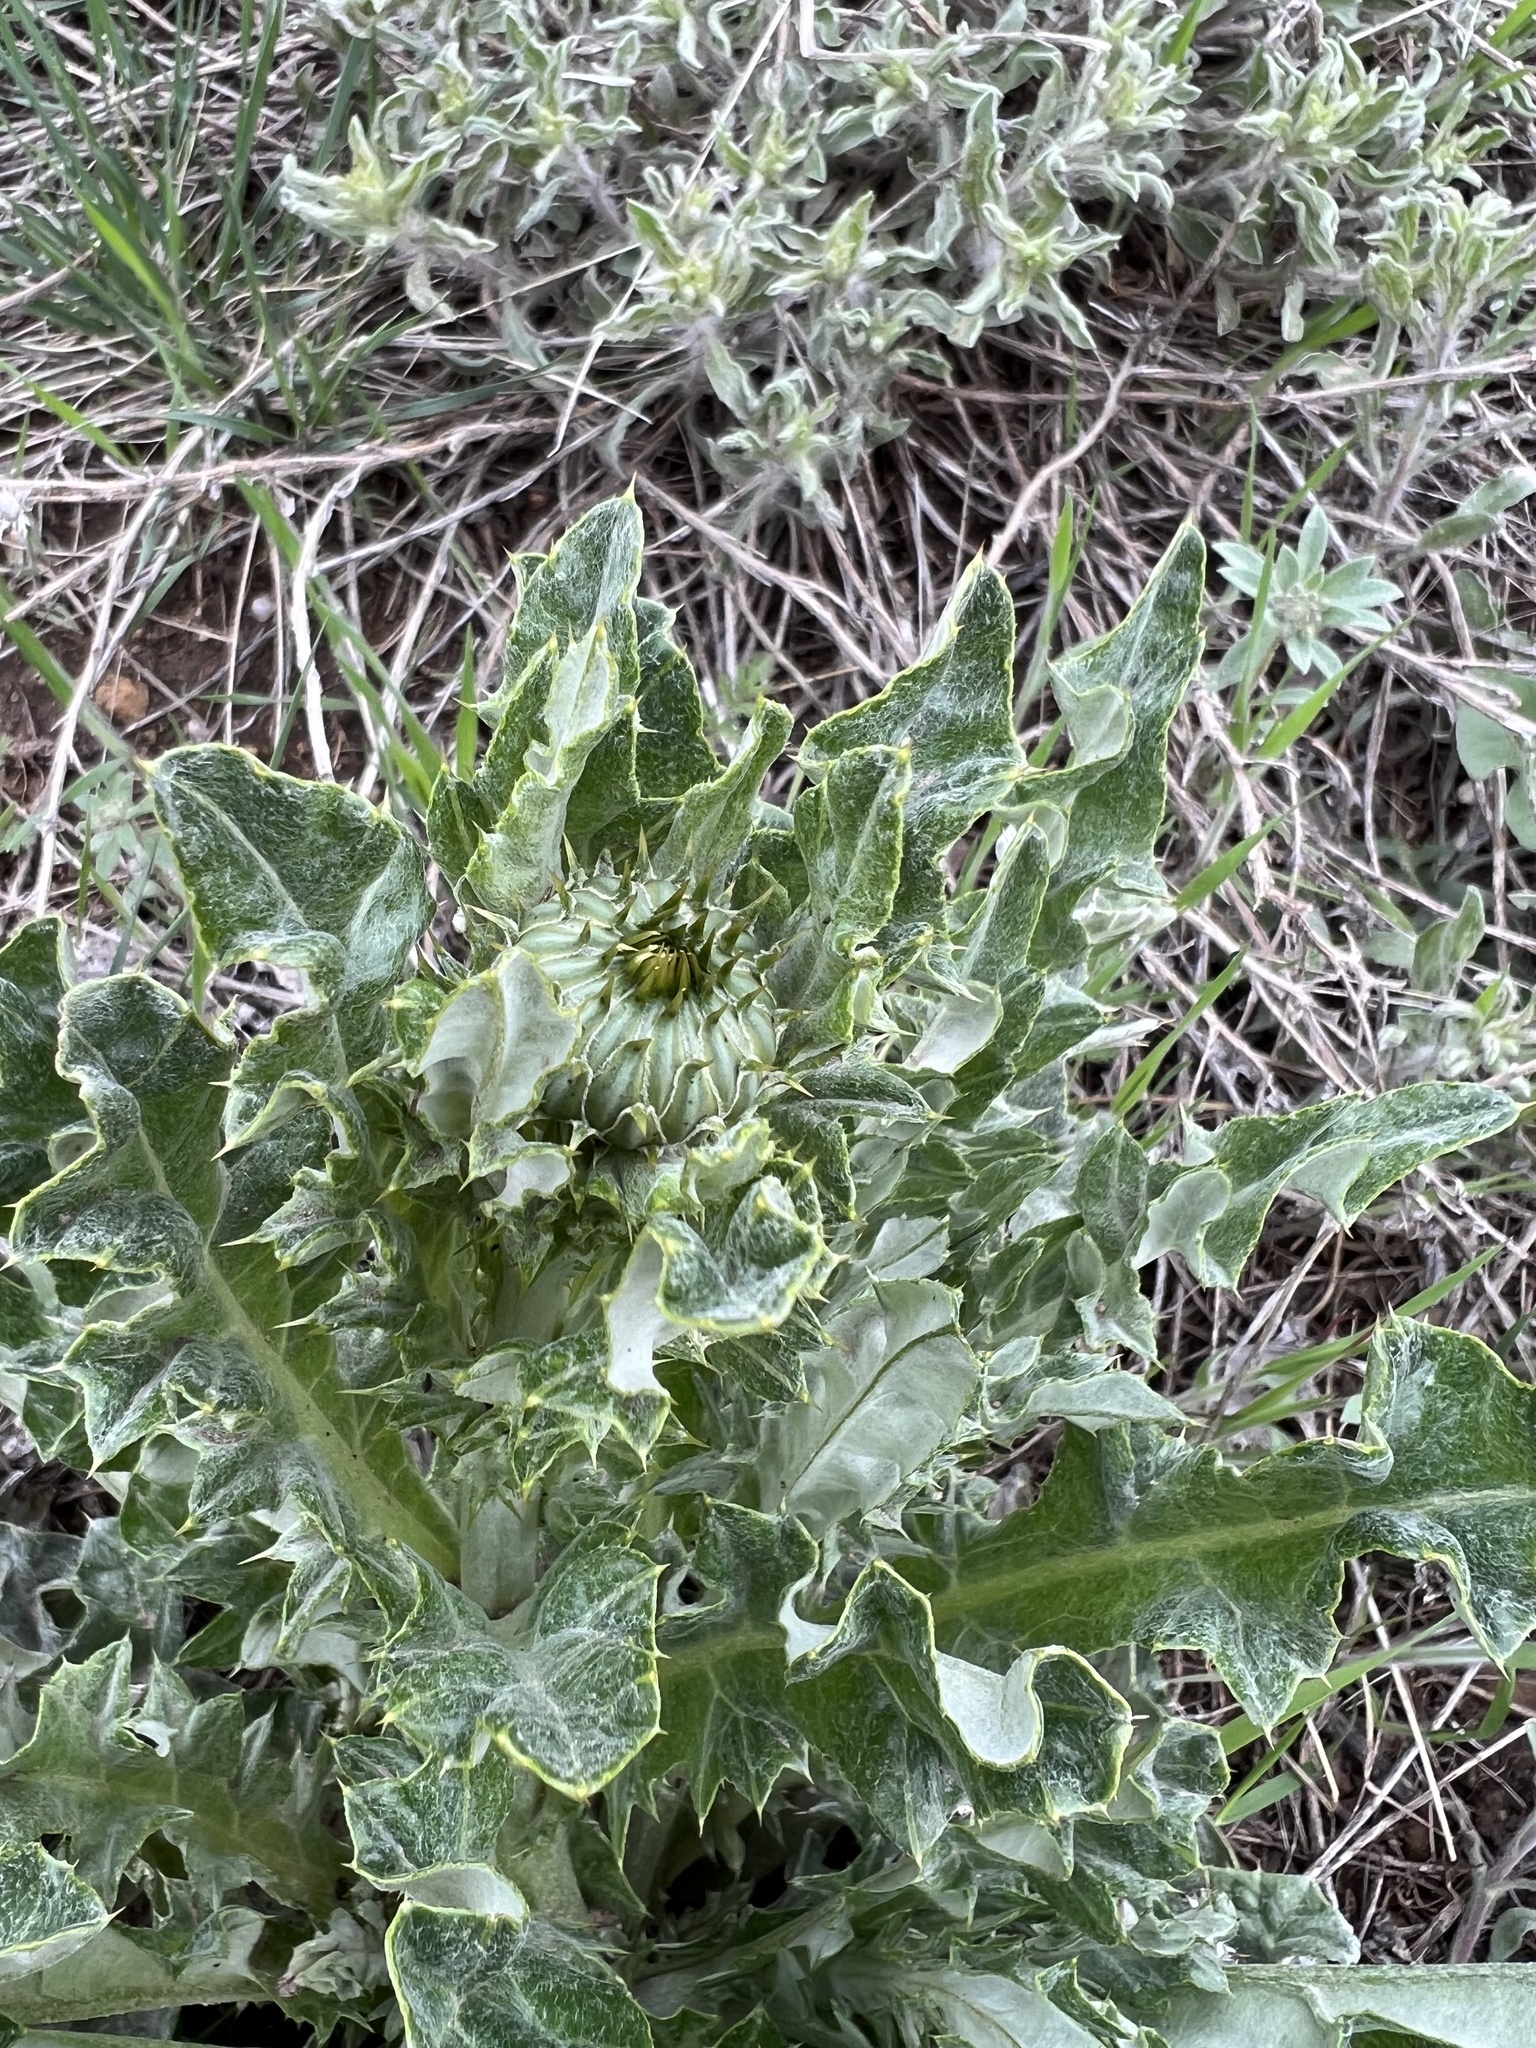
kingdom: Plantae
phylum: Tracheophyta
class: Magnoliopsida
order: Asterales
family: Asteraceae
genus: Cirsium
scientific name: Cirsium undulatum
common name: Pasture thistle
